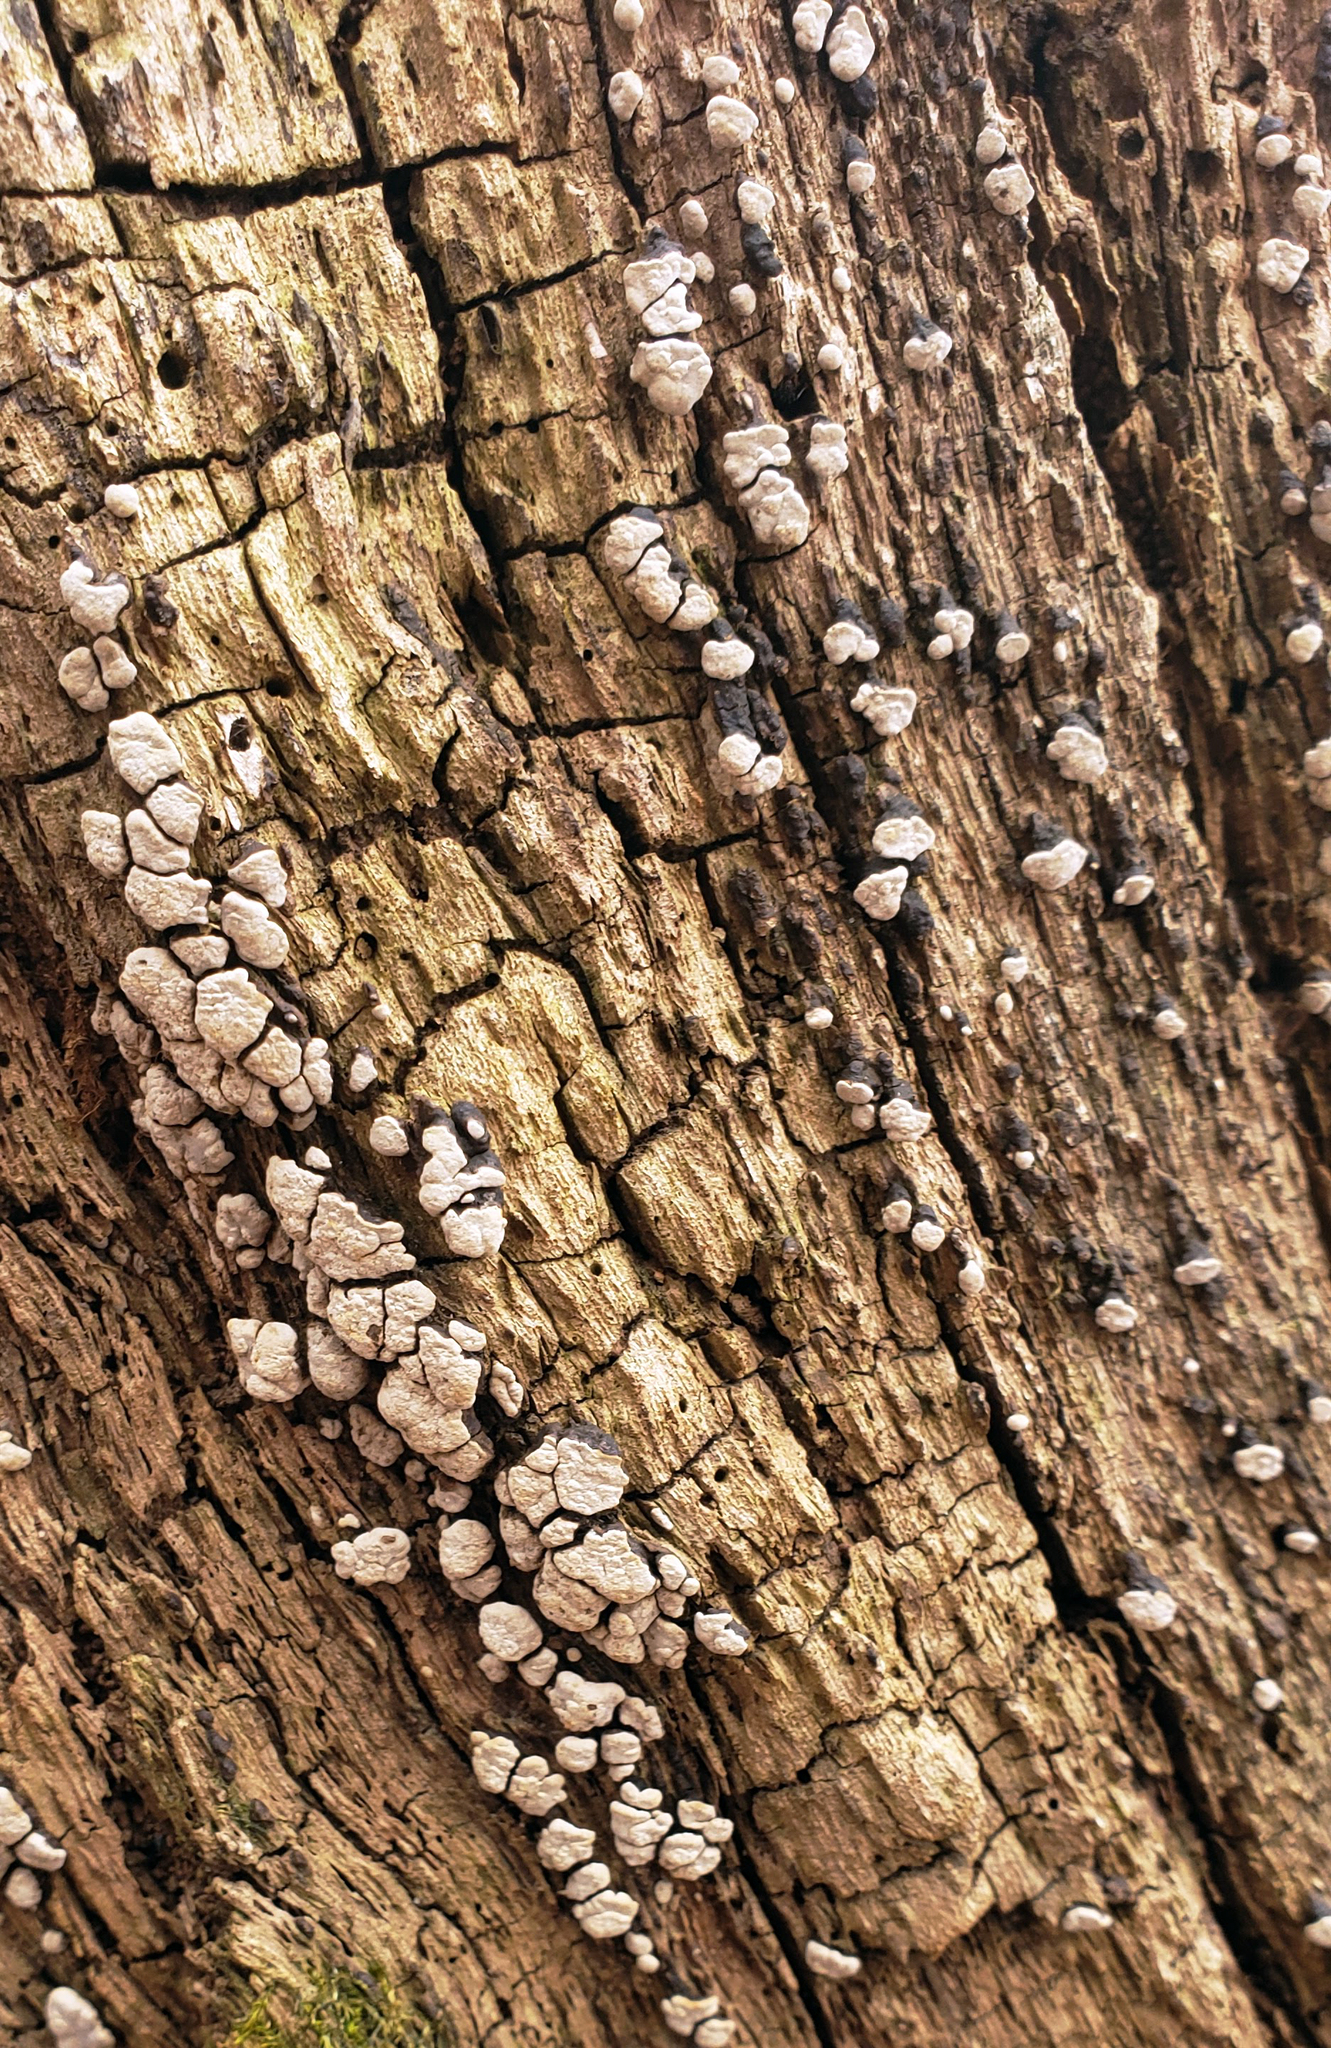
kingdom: Fungi
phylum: Basidiomycota
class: Agaricomycetes
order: Russulales
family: Stereaceae
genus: Xylobolus
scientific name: Xylobolus frustulatus
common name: Ceramic parchment
